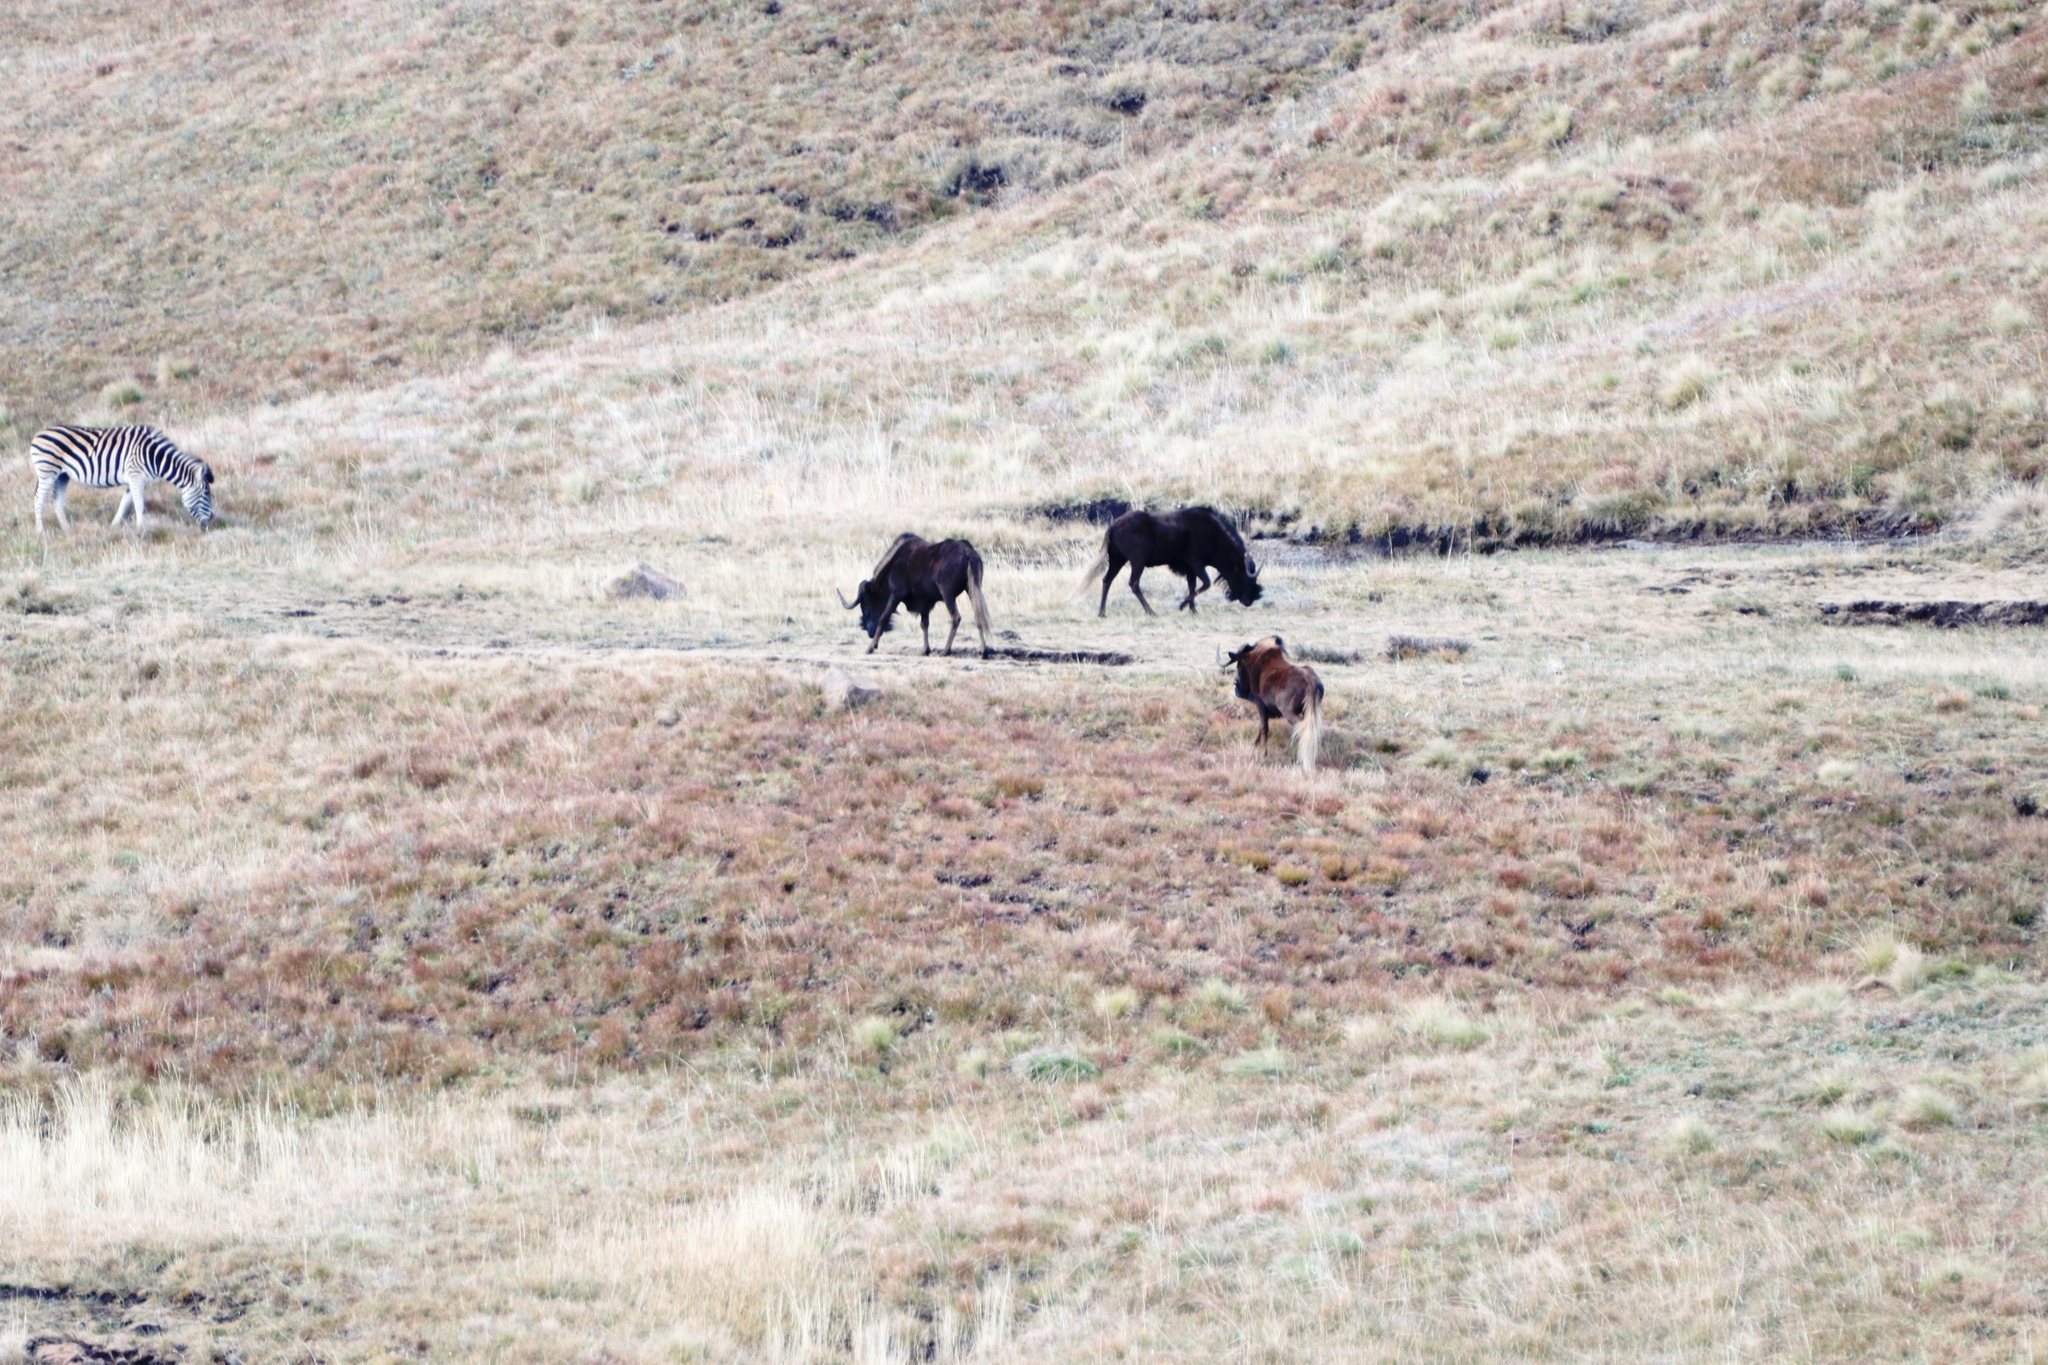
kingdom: Animalia
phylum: Chordata
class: Mammalia
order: Artiodactyla
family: Bovidae
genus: Connochaetes
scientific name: Connochaetes gnou
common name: Black wildebeest
